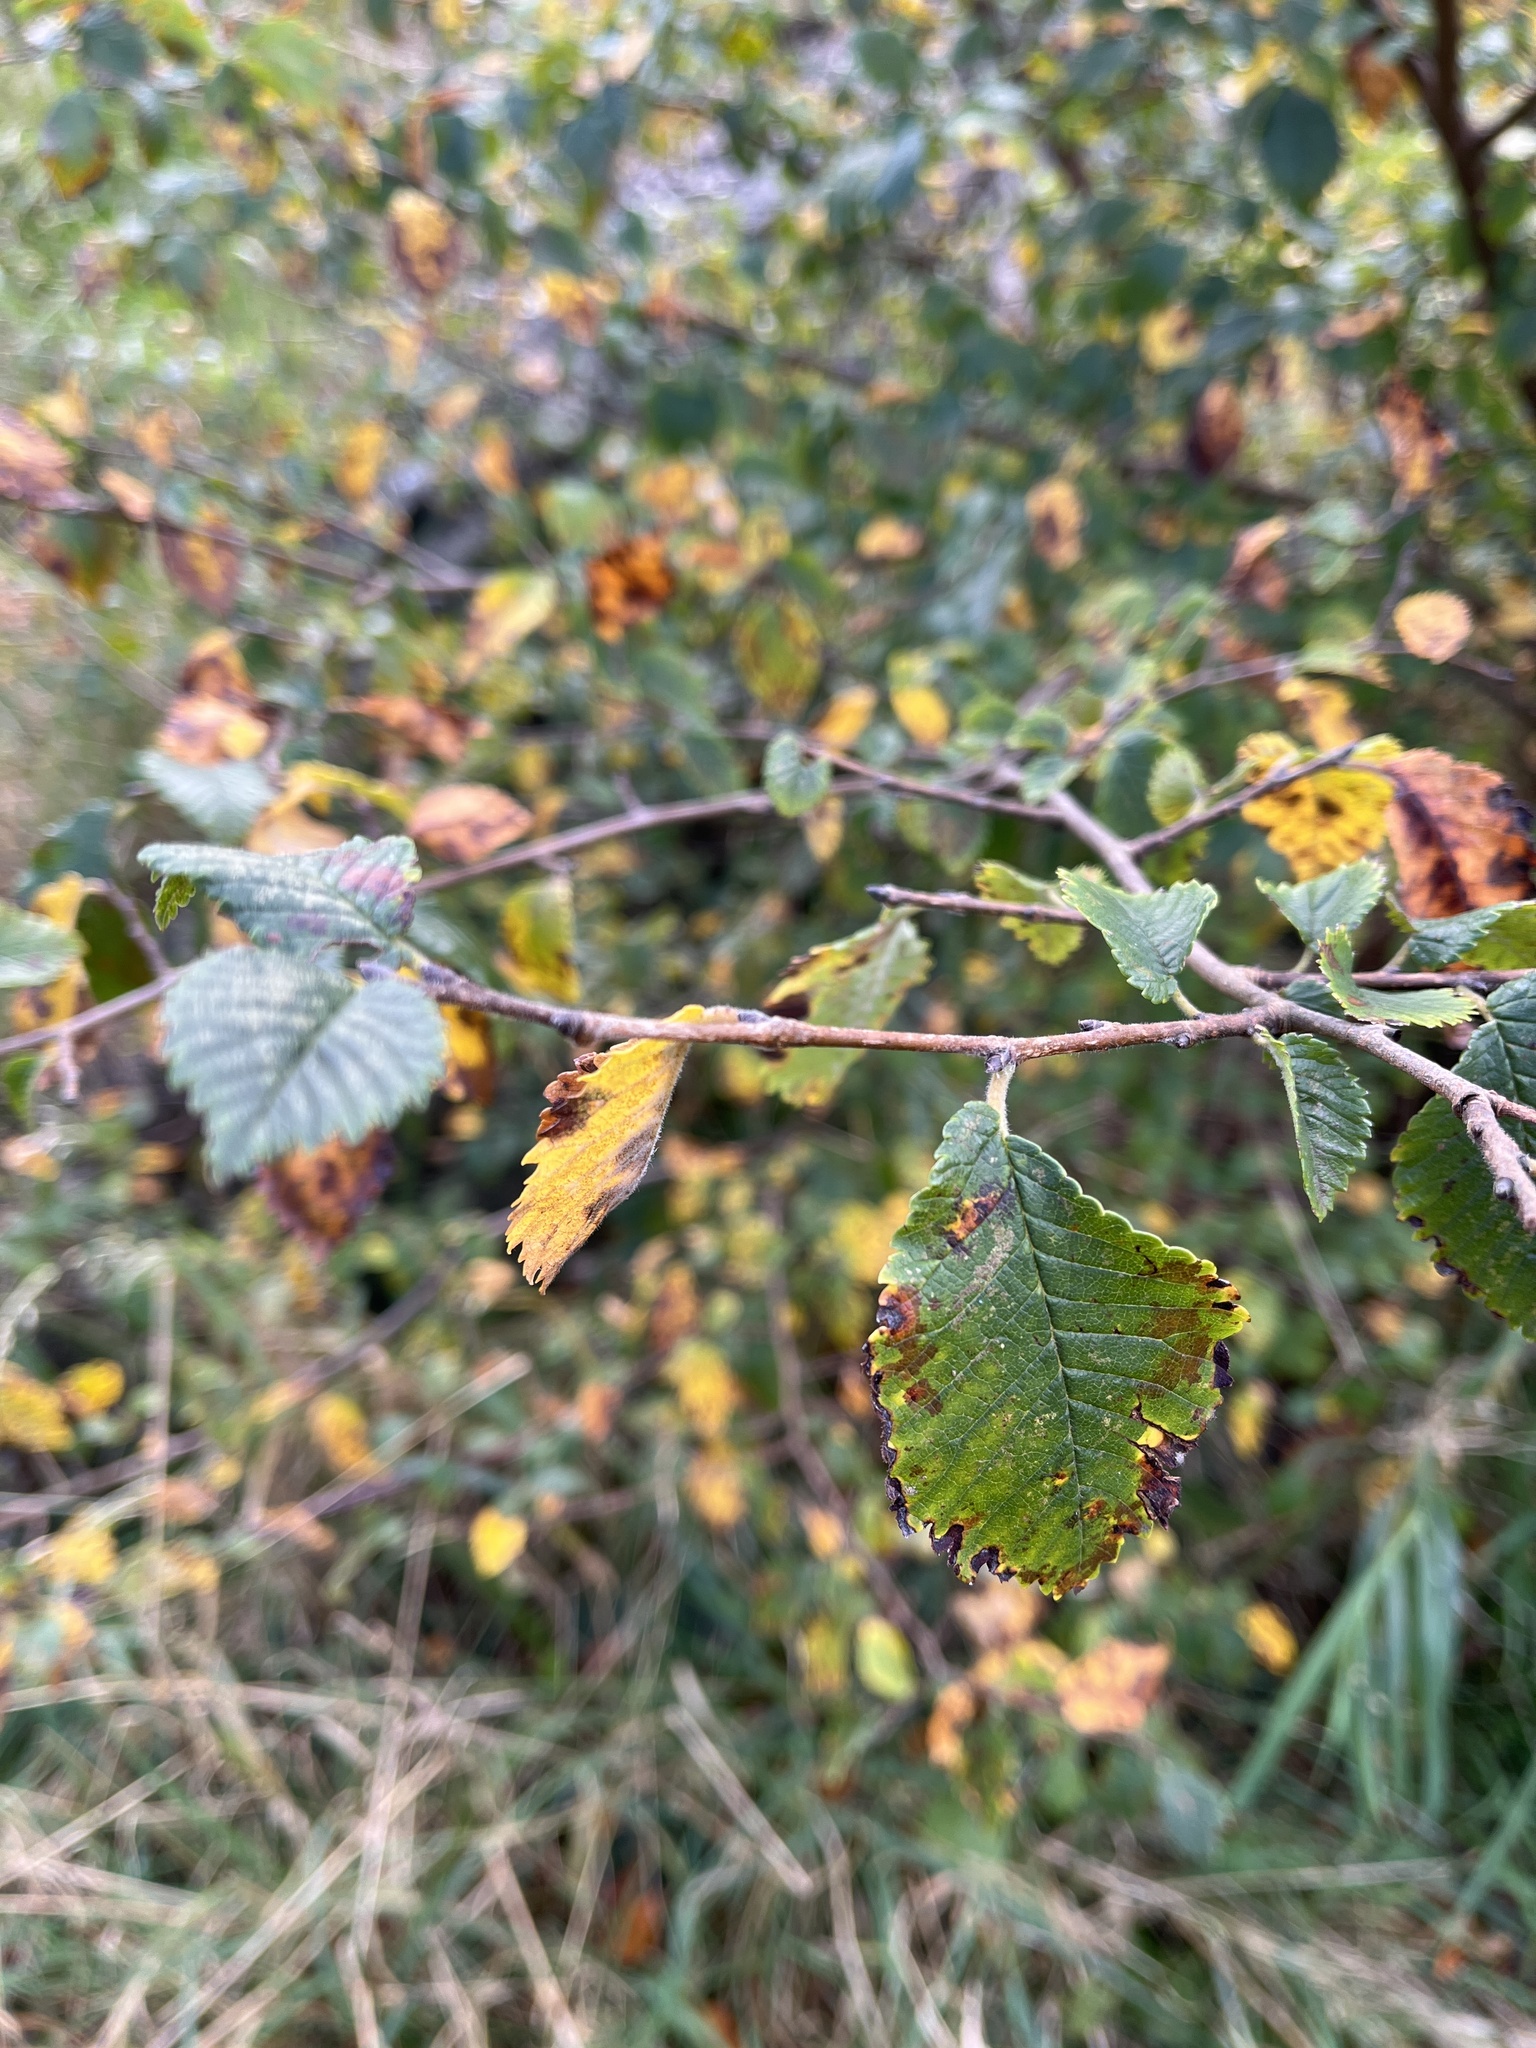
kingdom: Plantae
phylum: Tracheophyta
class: Magnoliopsida
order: Rosales
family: Ulmaceae
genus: Ulmus
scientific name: Ulmus minor
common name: Small-leaved elm
